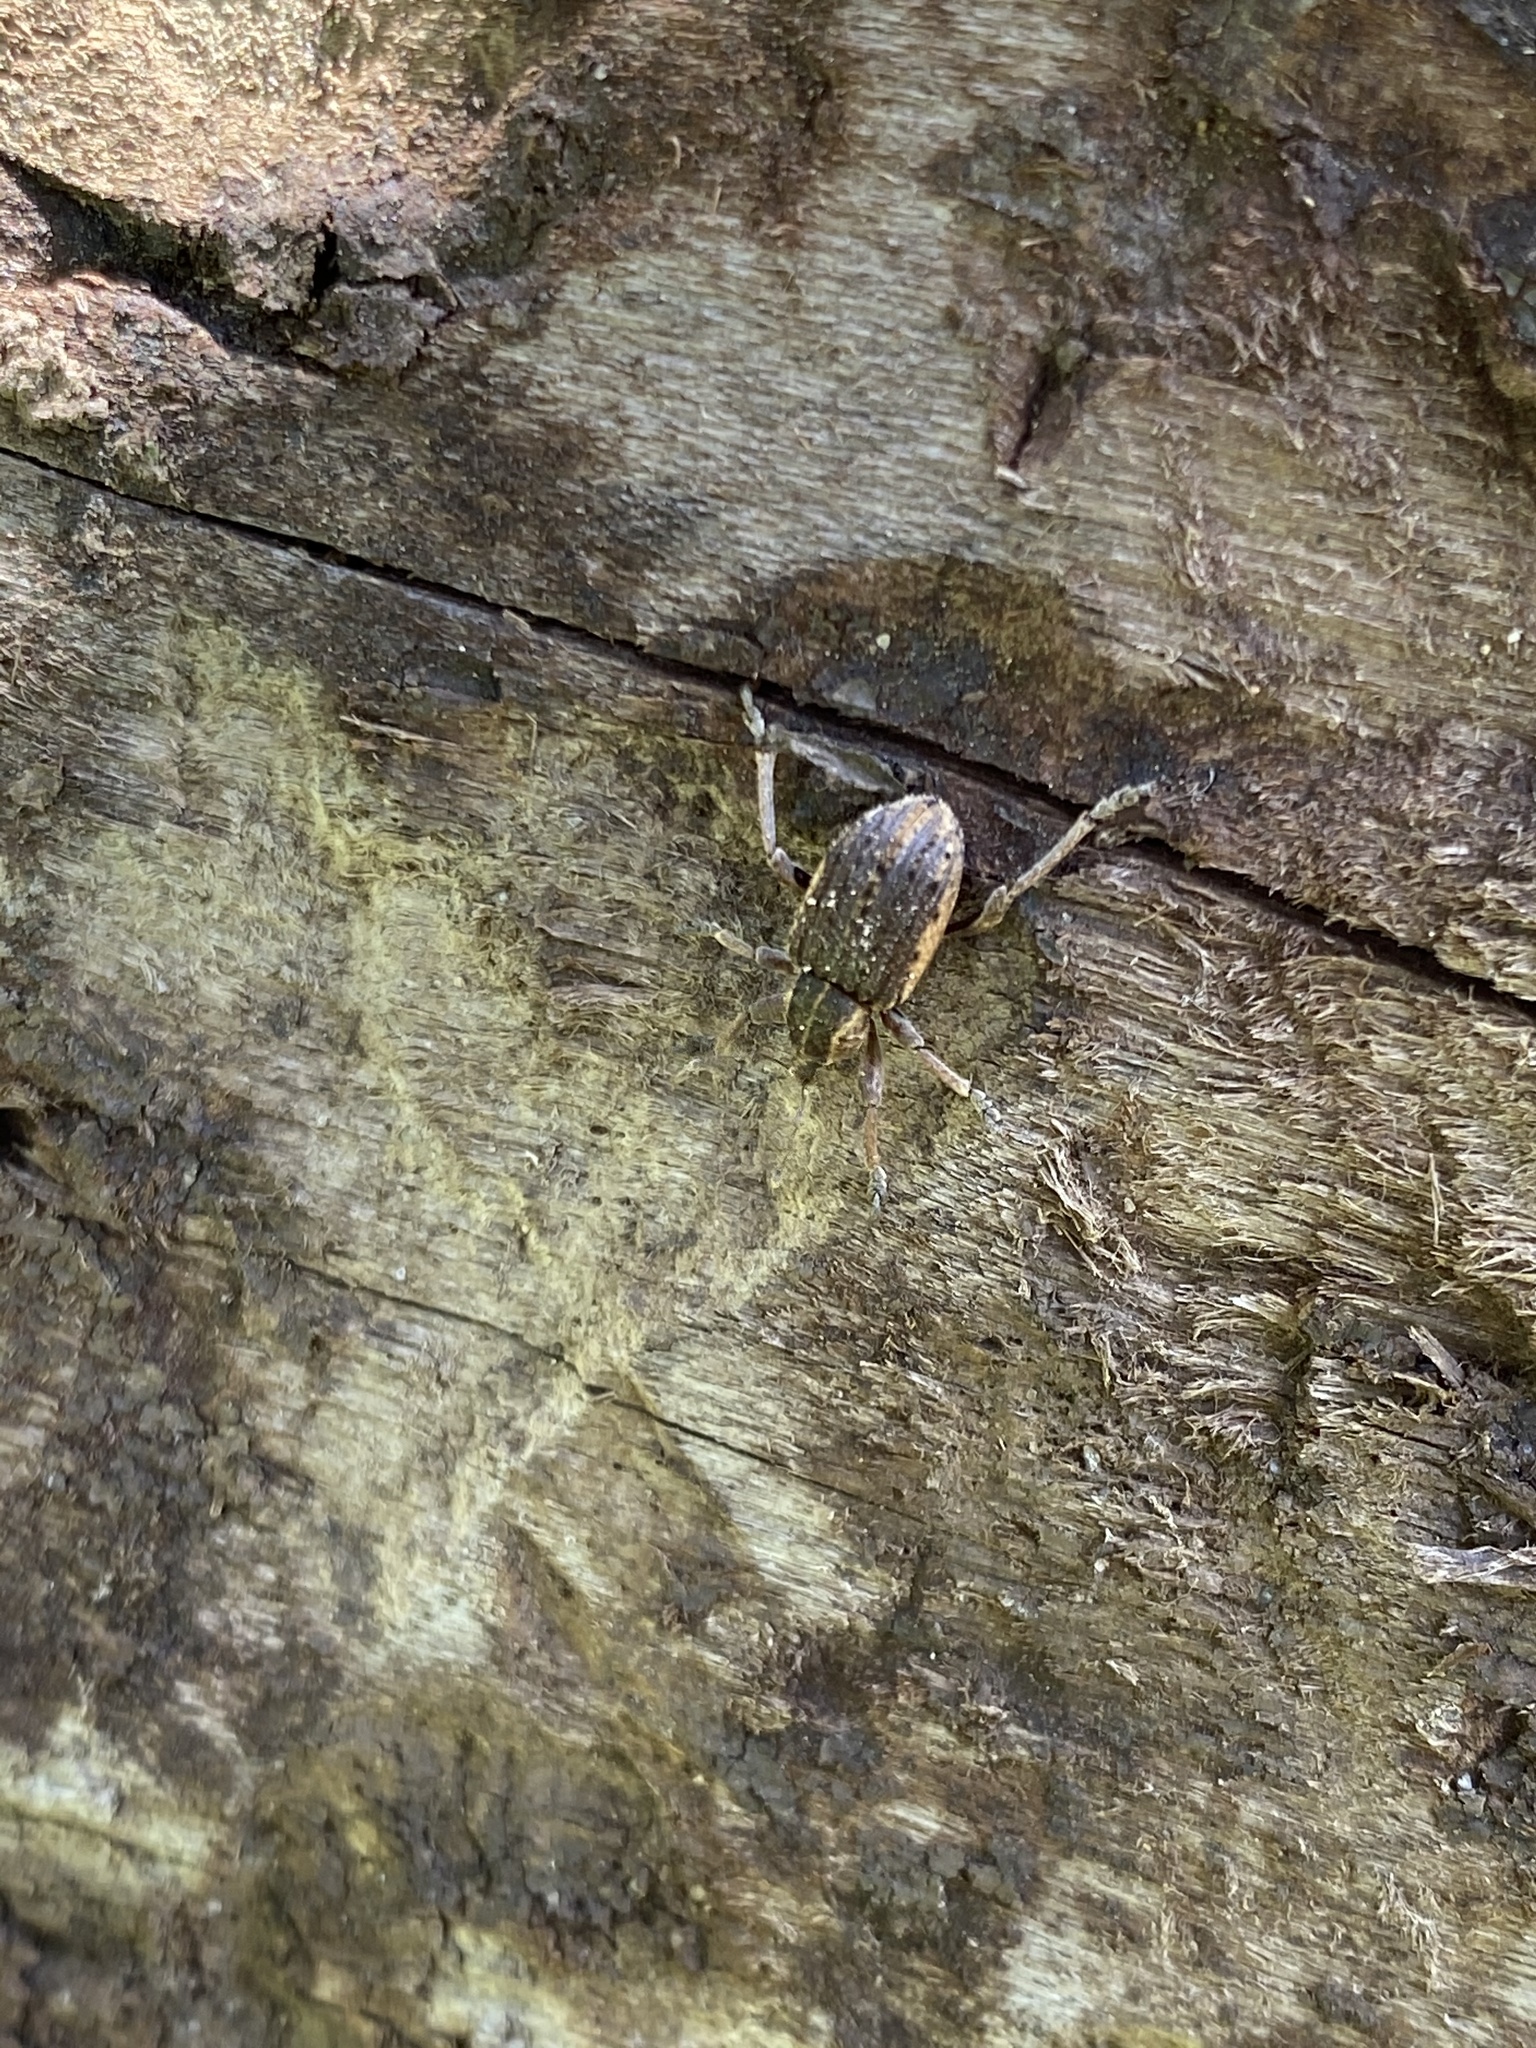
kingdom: Animalia
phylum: Arthropoda
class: Insecta
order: Coleoptera
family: Curculionidae
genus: Brachypera
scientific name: Brachypera zoilus
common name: Clover leaf weevil
